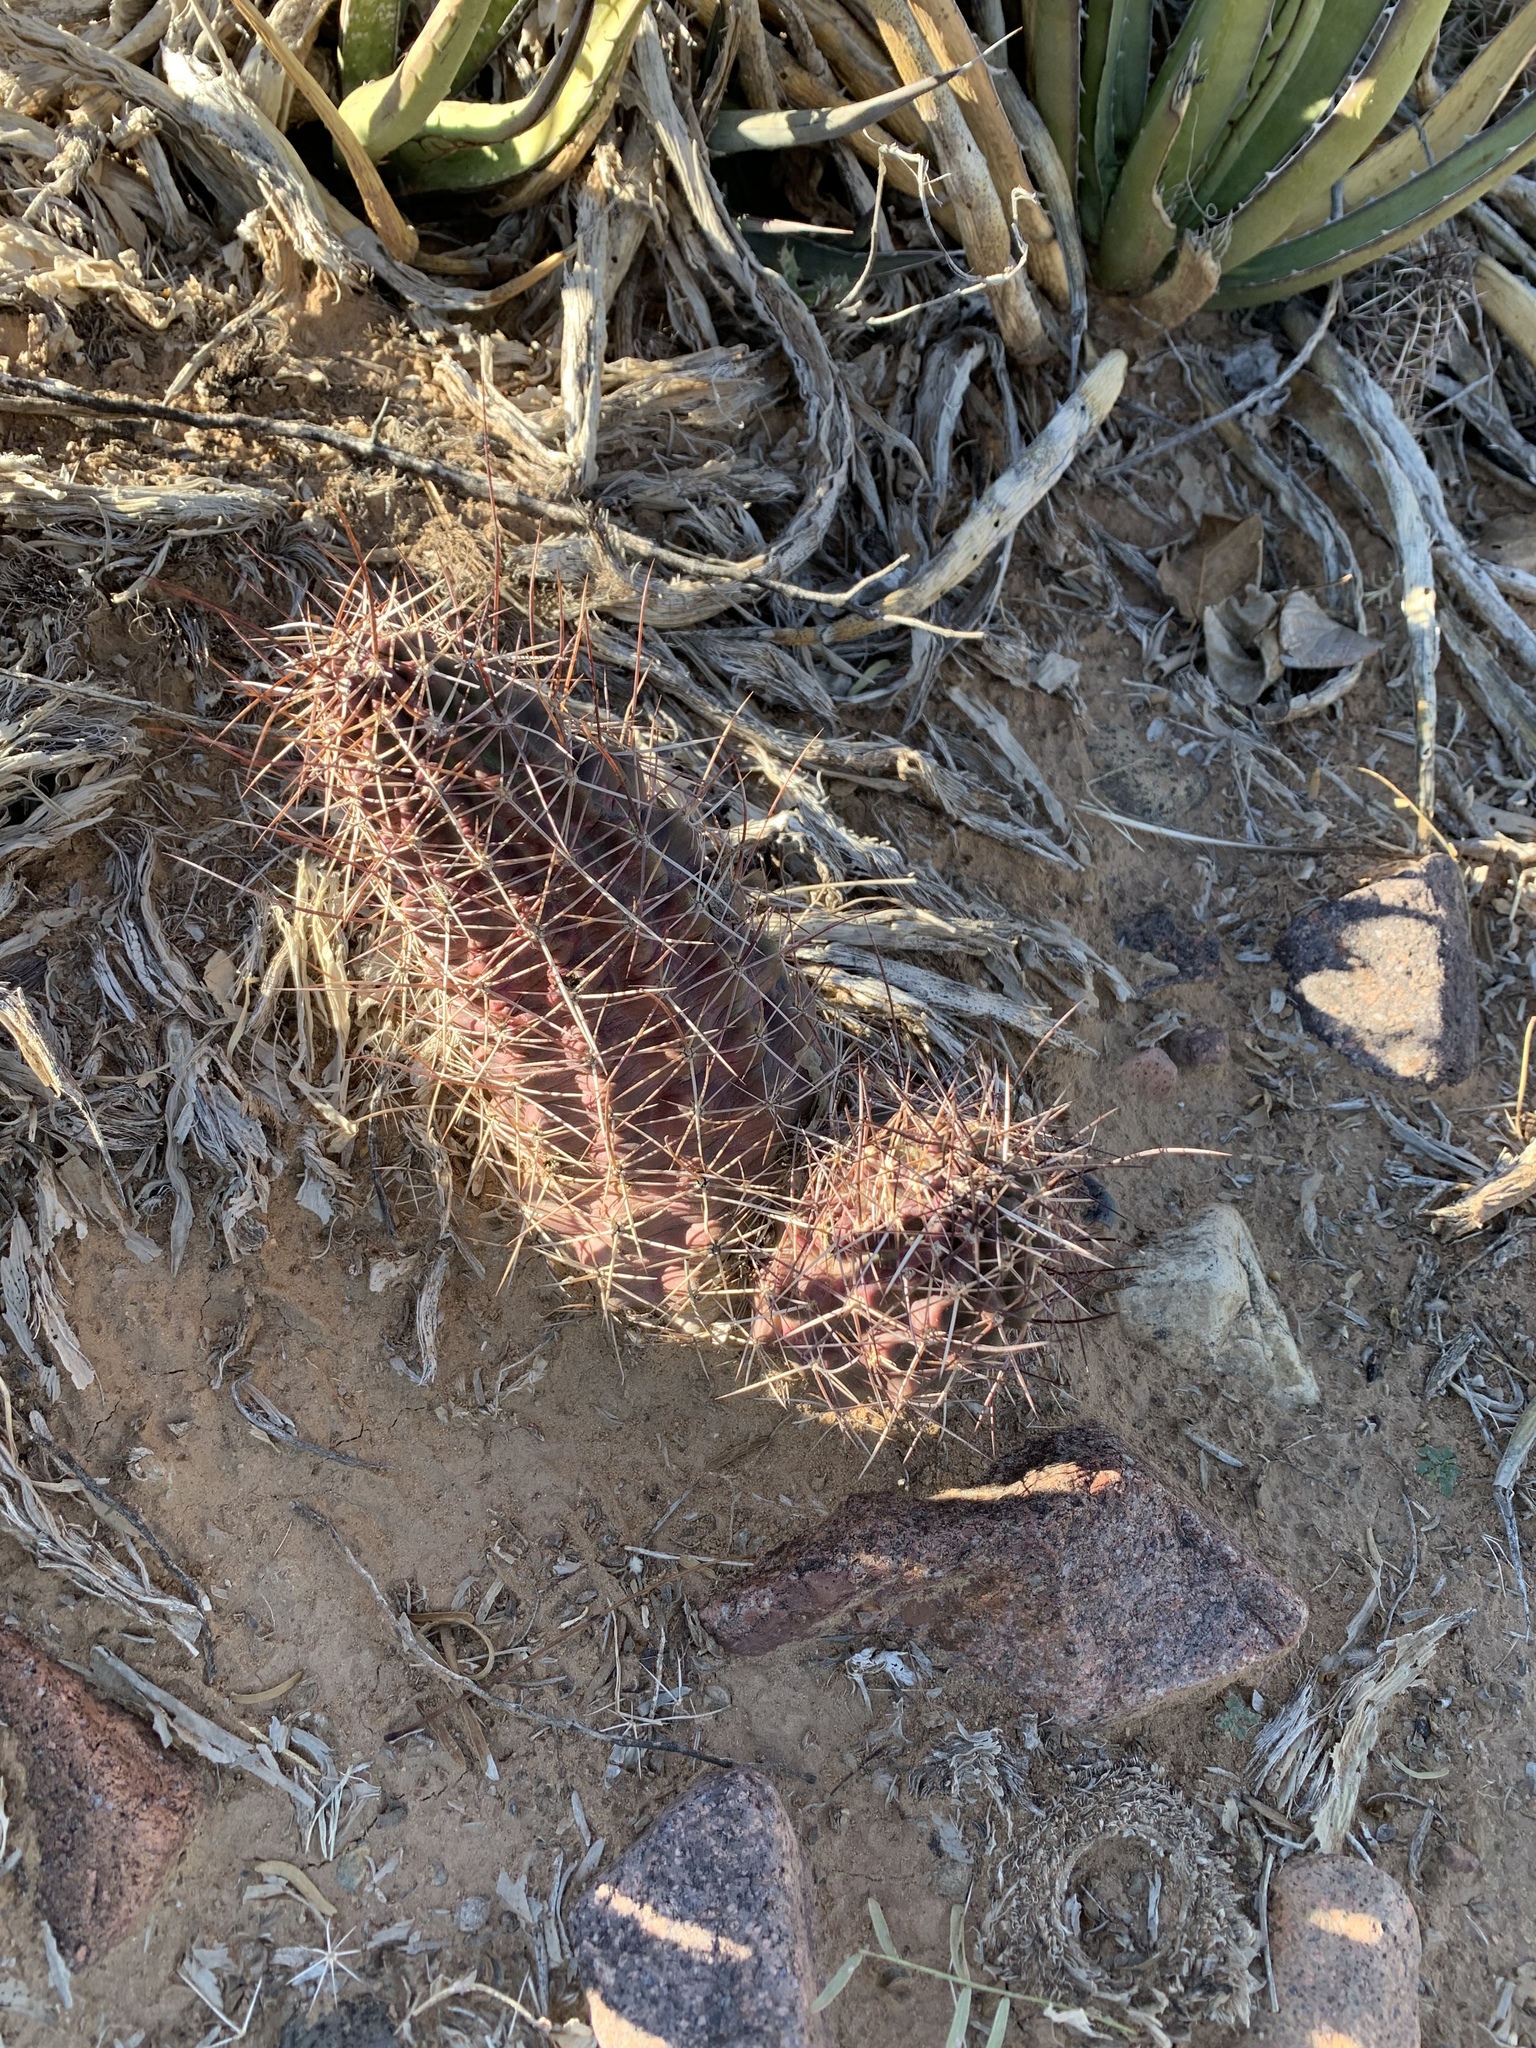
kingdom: Plantae
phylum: Tracheophyta
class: Magnoliopsida
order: Caryophyllales
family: Cactaceae
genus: Echinocereus
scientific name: Echinocereus fendleri
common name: Fendler's hedgehog cactus
